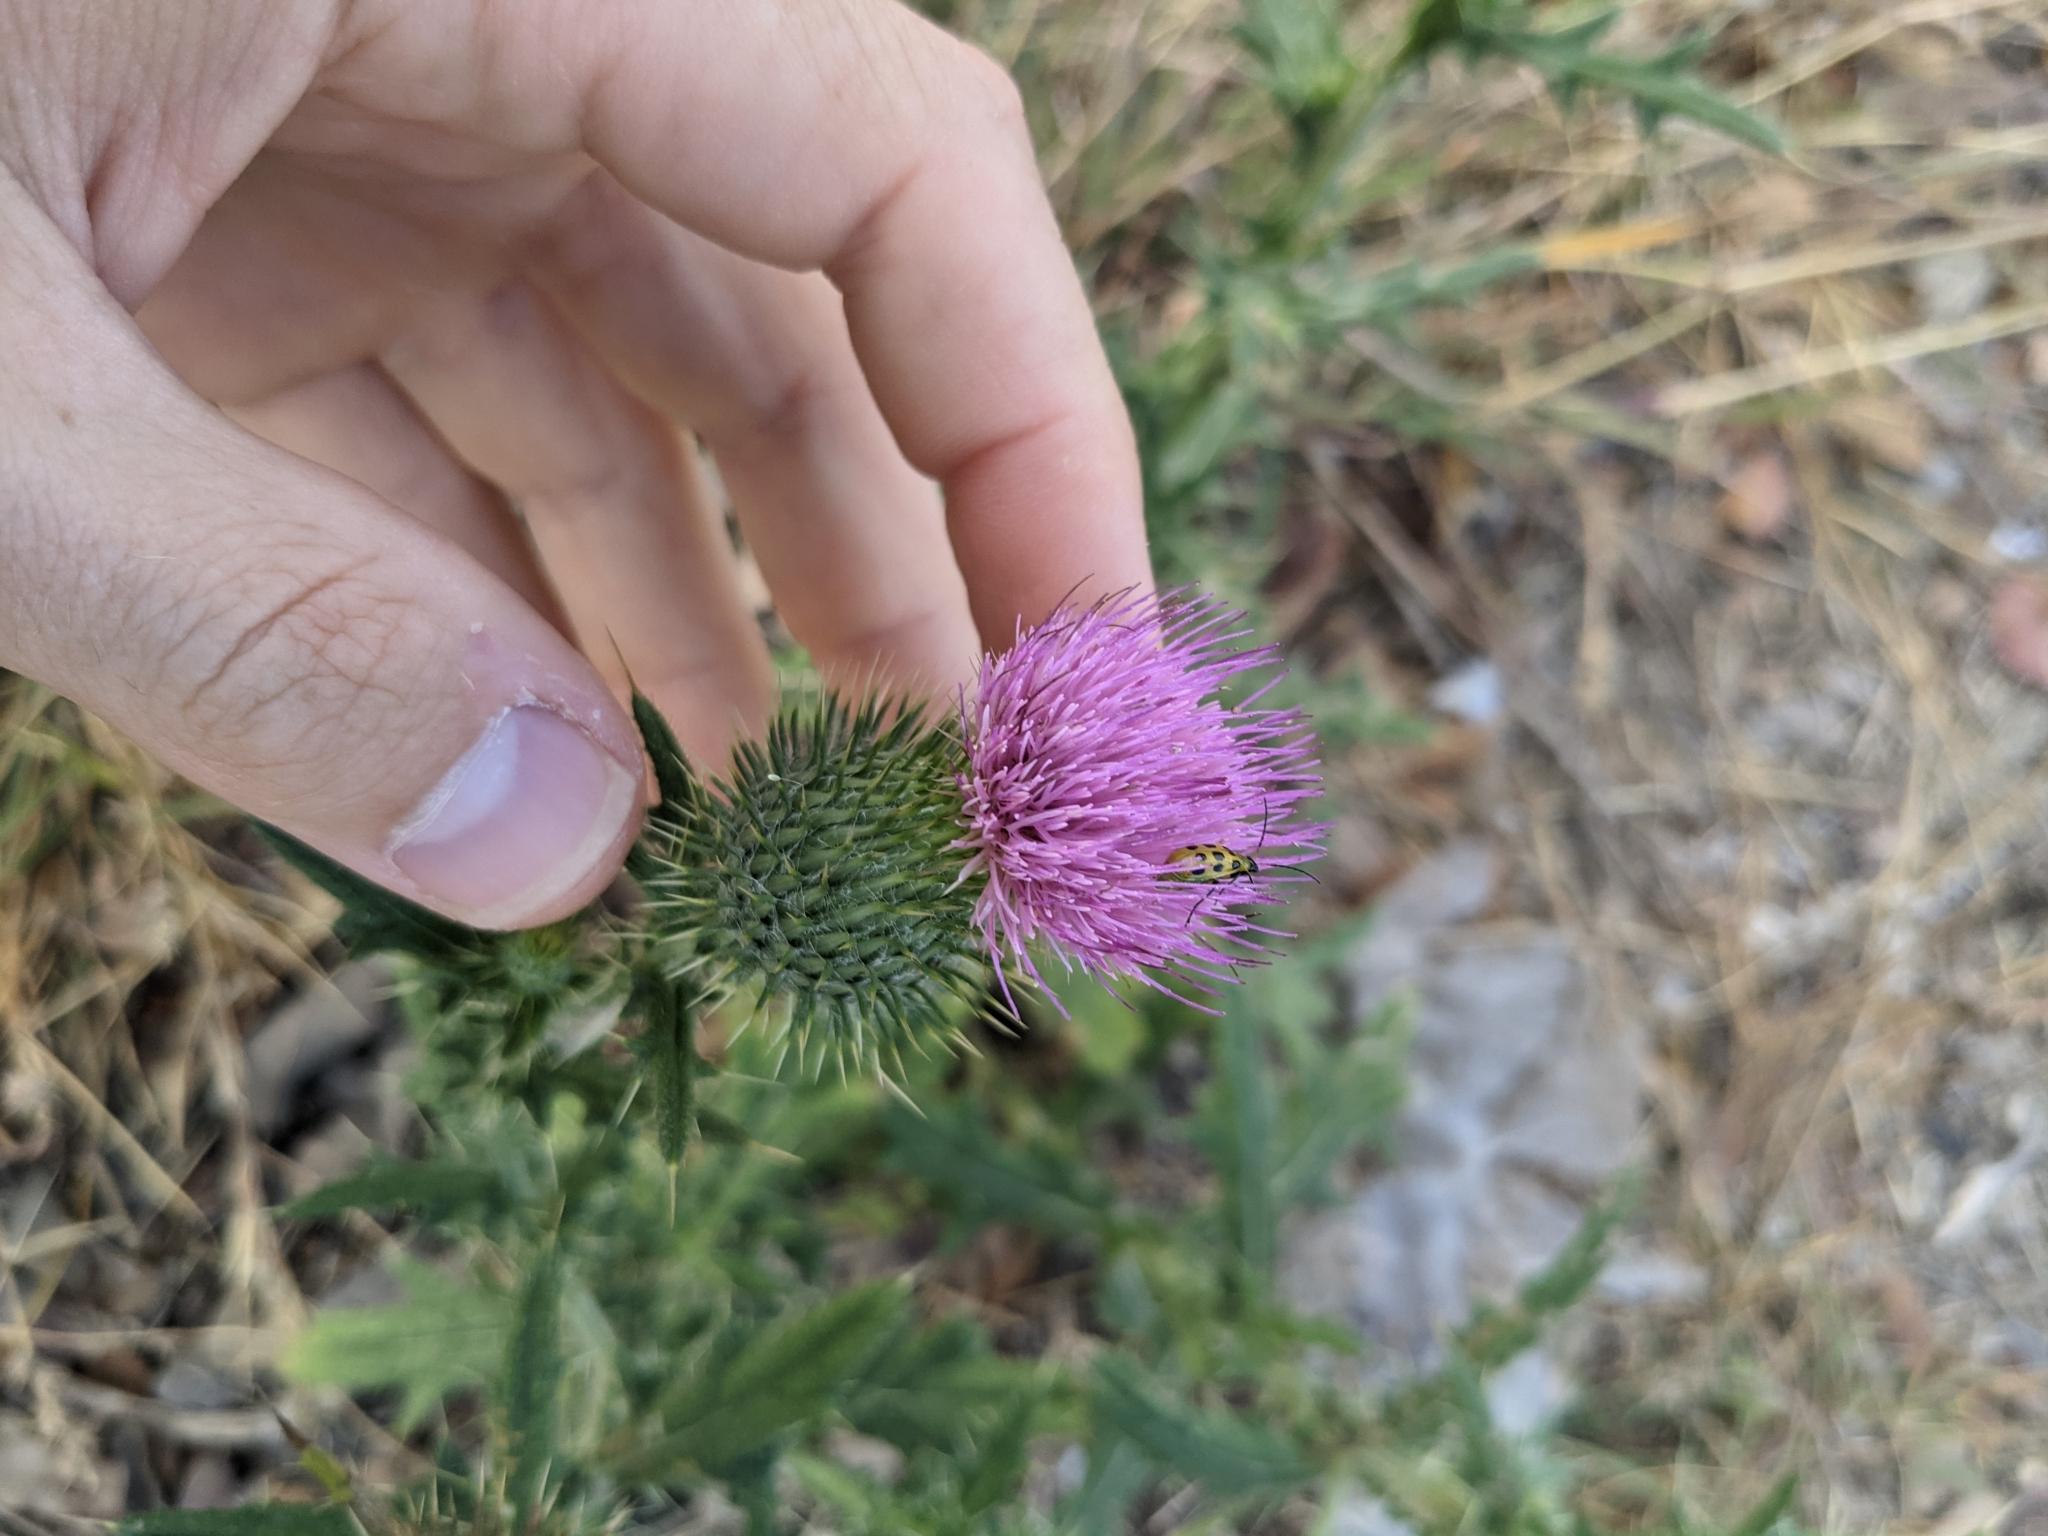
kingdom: Plantae
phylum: Tracheophyta
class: Magnoliopsida
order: Asterales
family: Asteraceae
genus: Cirsium
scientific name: Cirsium vulgare
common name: Bull thistle
